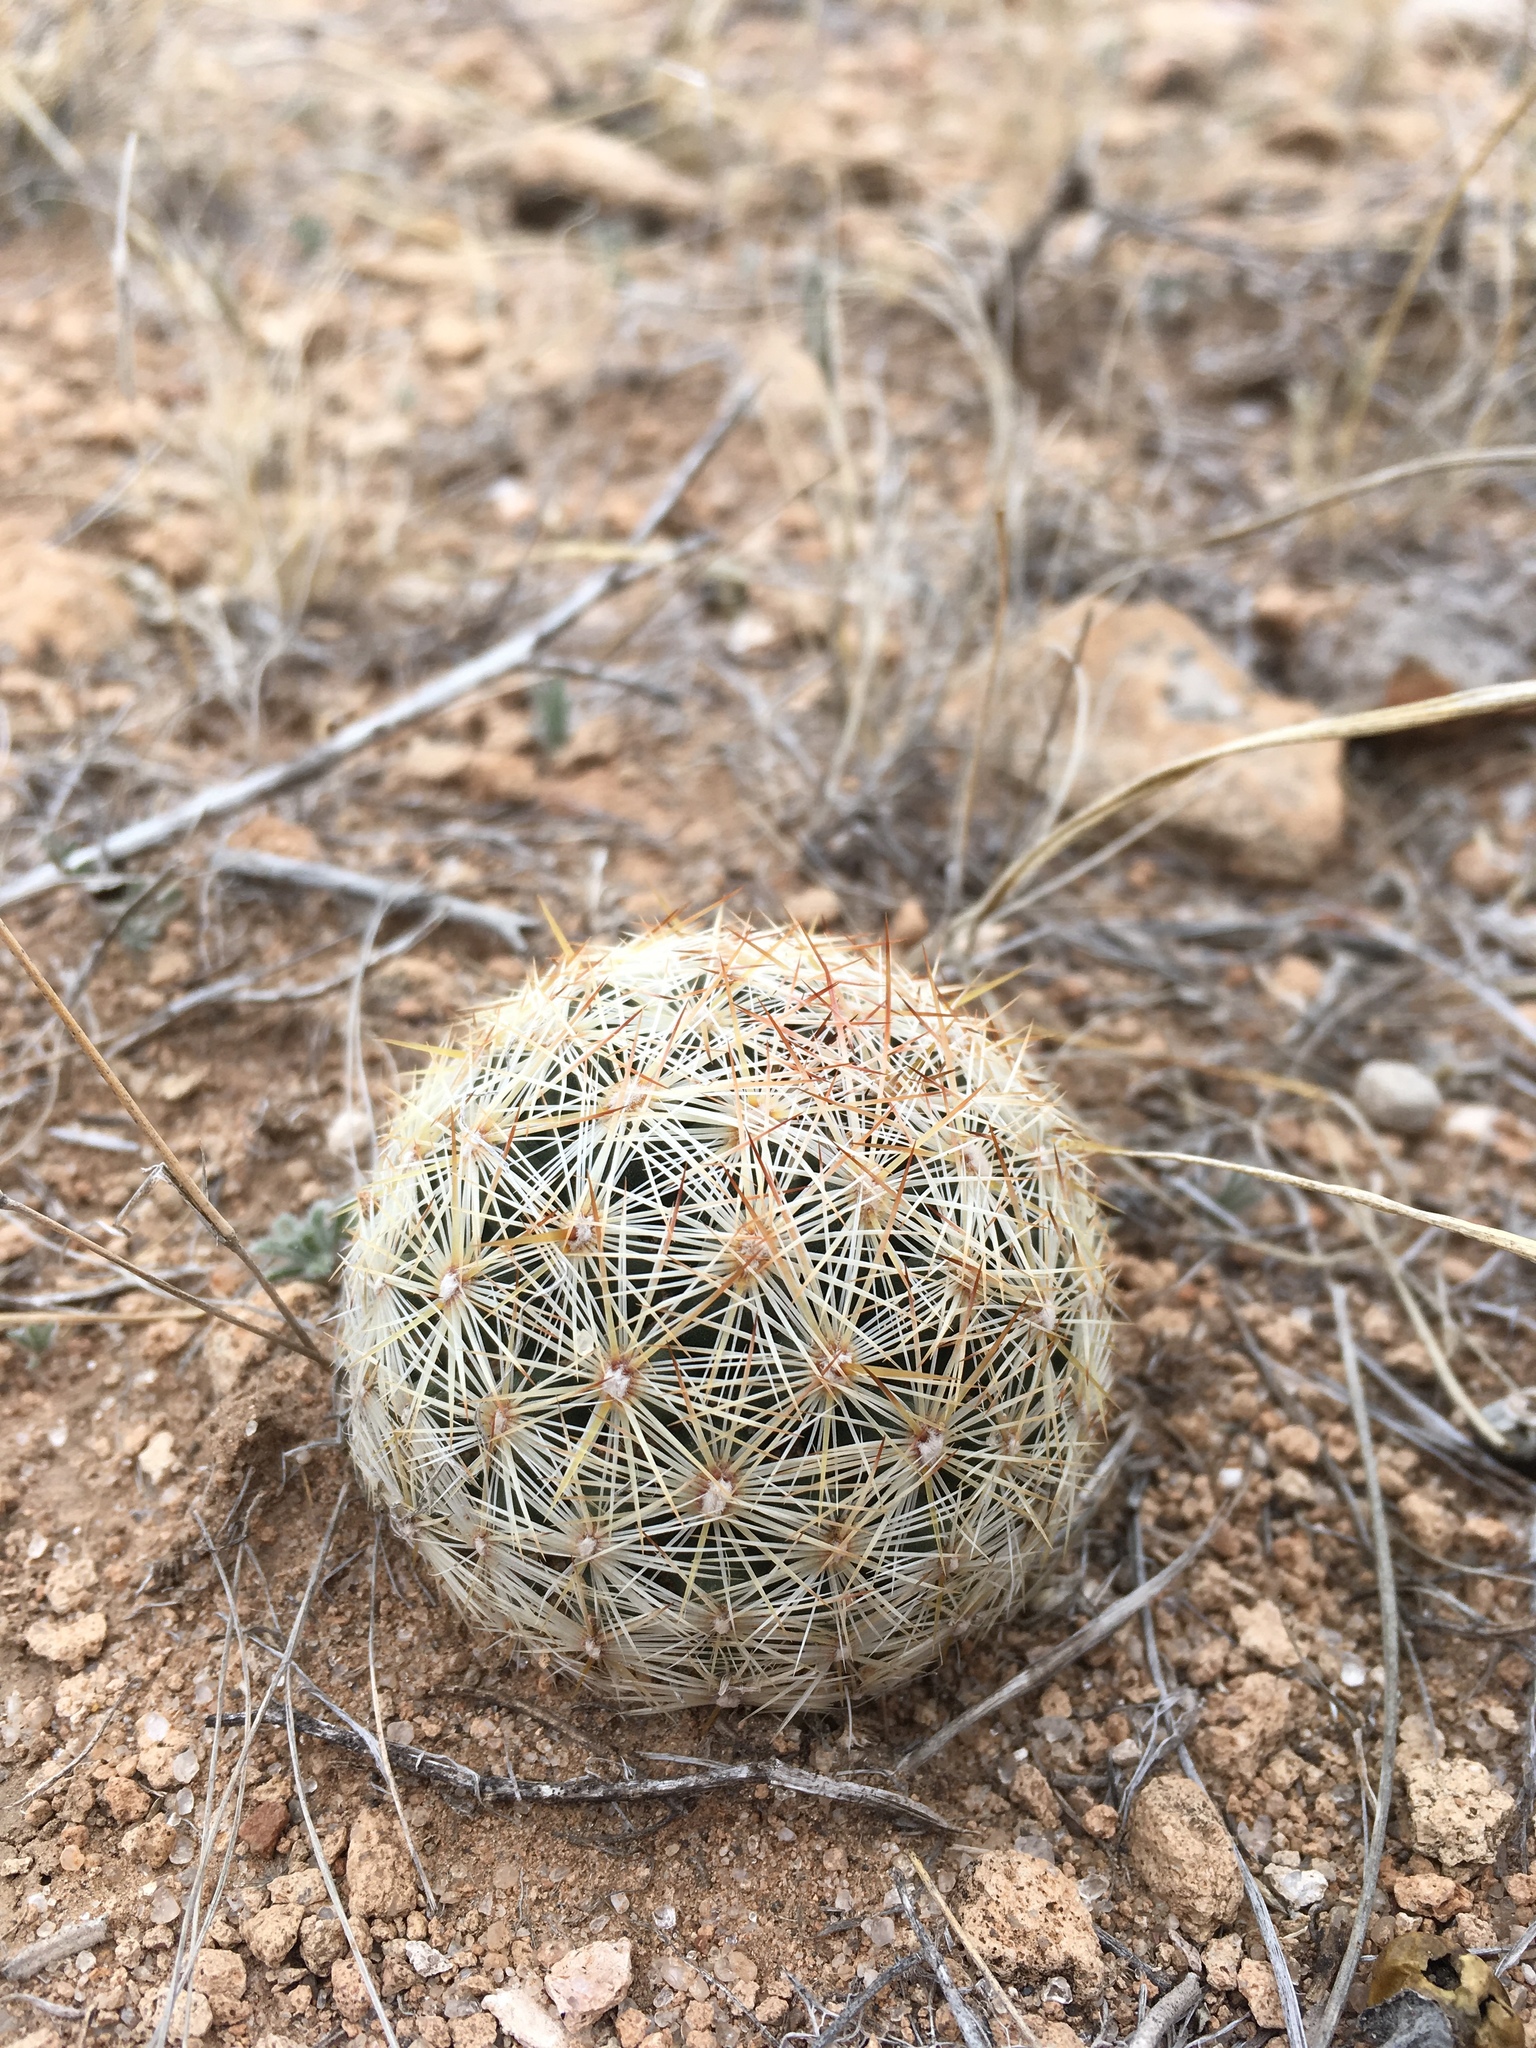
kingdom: Plantae
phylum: Tracheophyta
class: Magnoliopsida
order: Caryophyllales
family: Cactaceae
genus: Pelecyphora
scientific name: Pelecyphora vivipara
